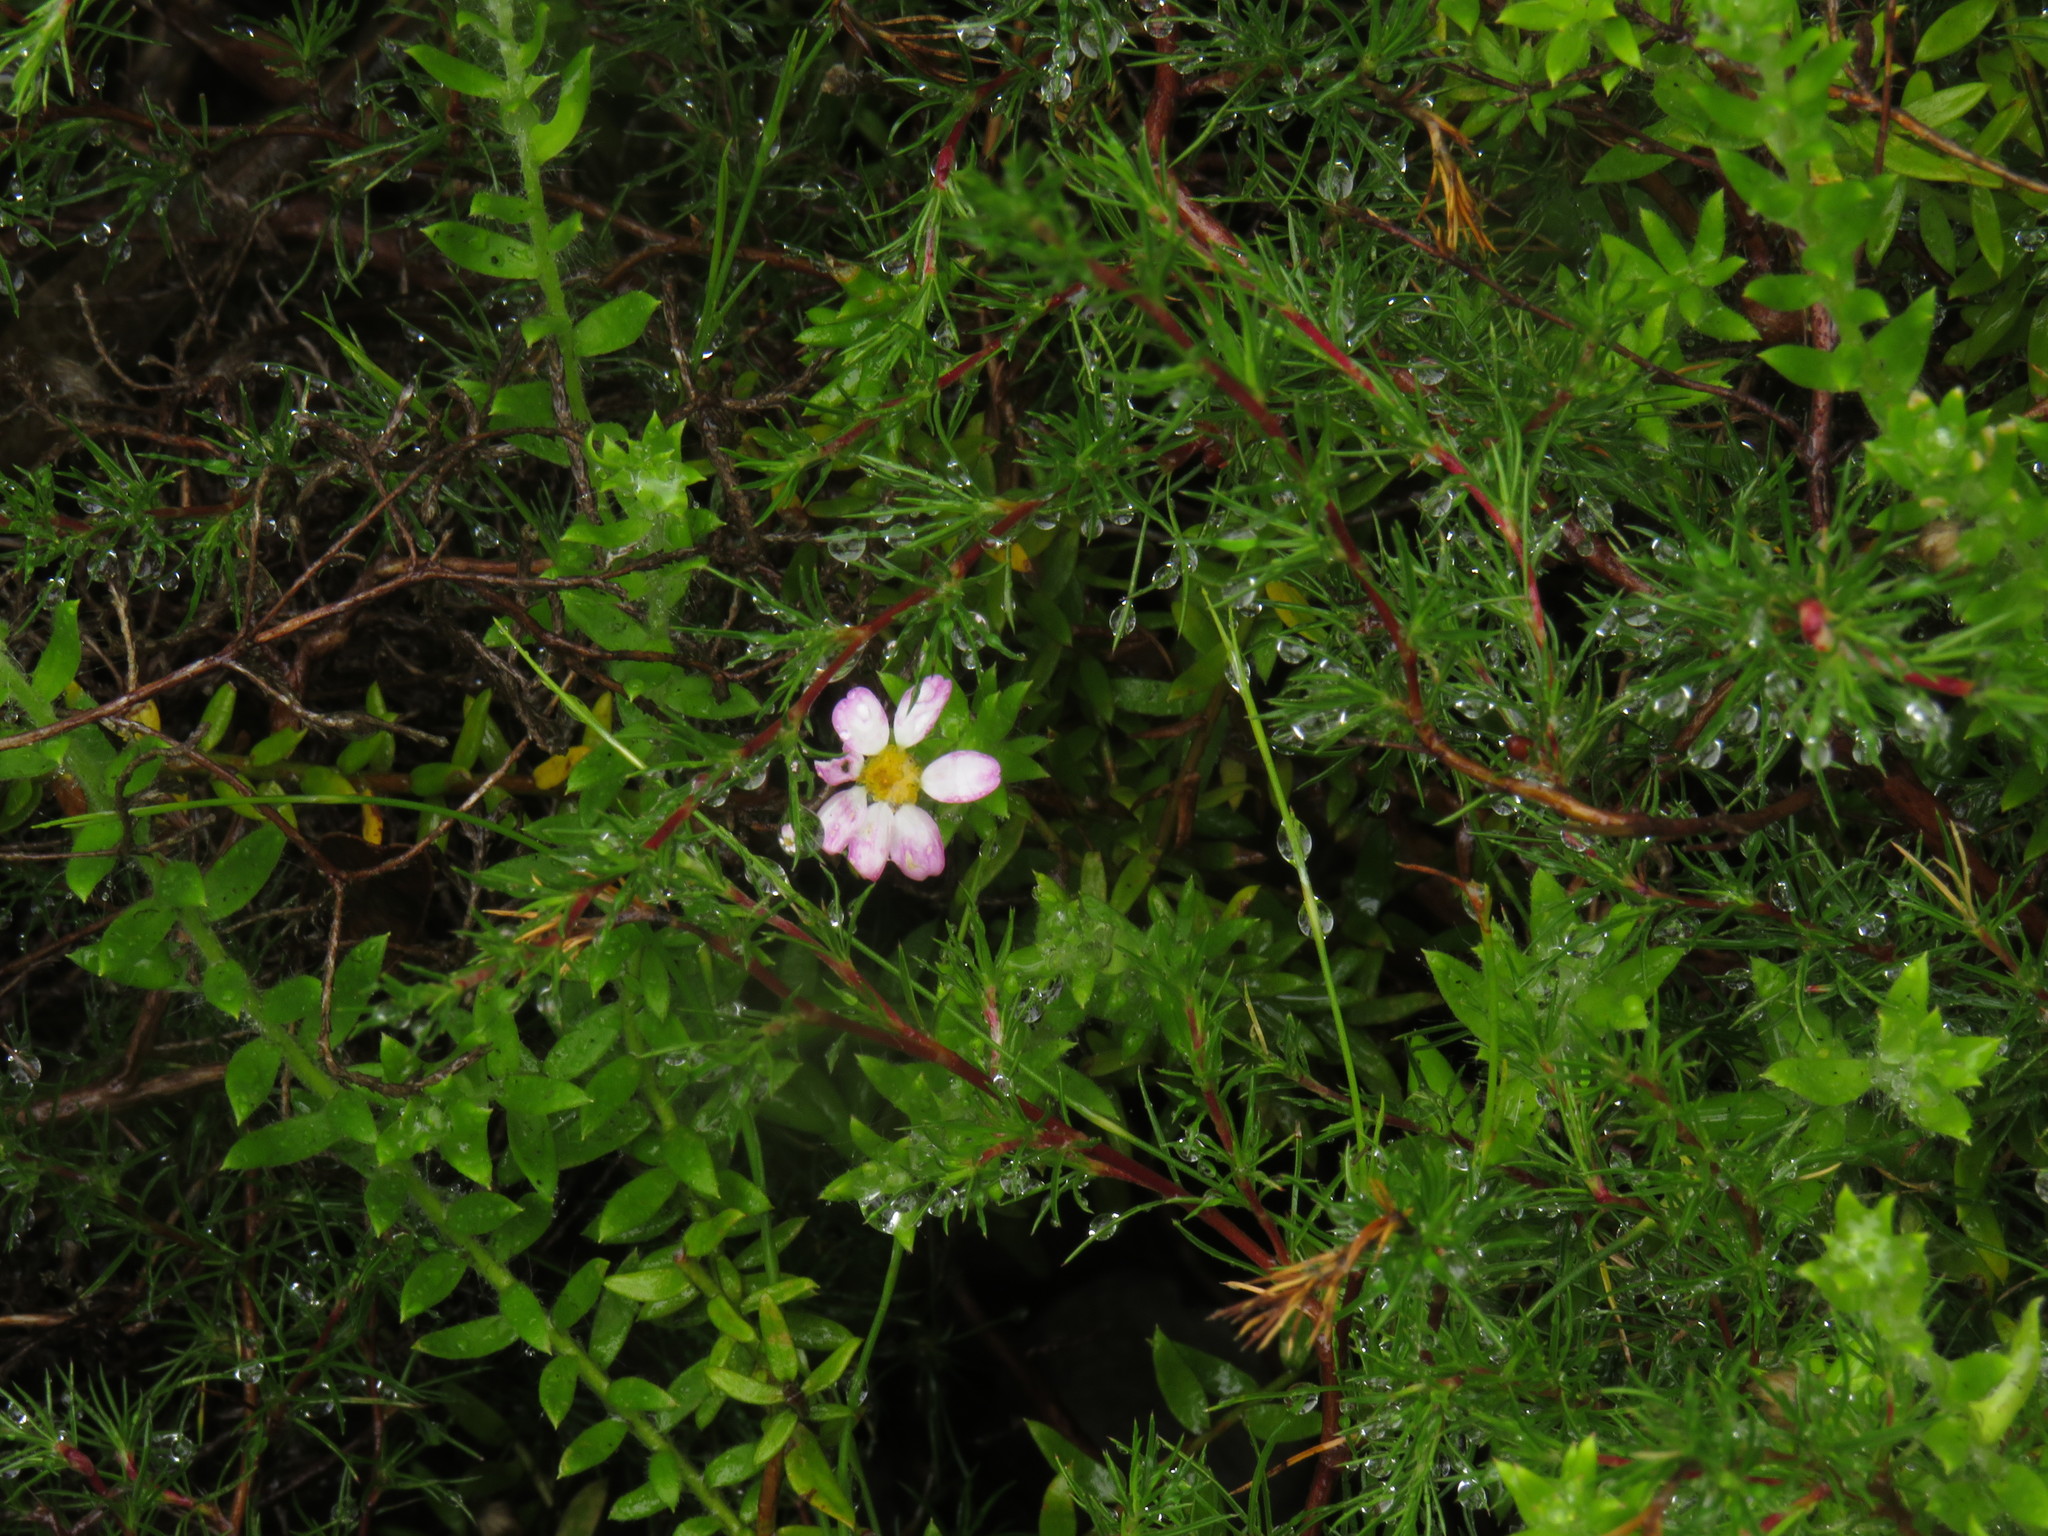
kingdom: Plantae
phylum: Tracheophyta
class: Magnoliopsida
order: Asterales
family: Asteraceae
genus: Thaminophyllum
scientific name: Thaminophyllum latifolium
